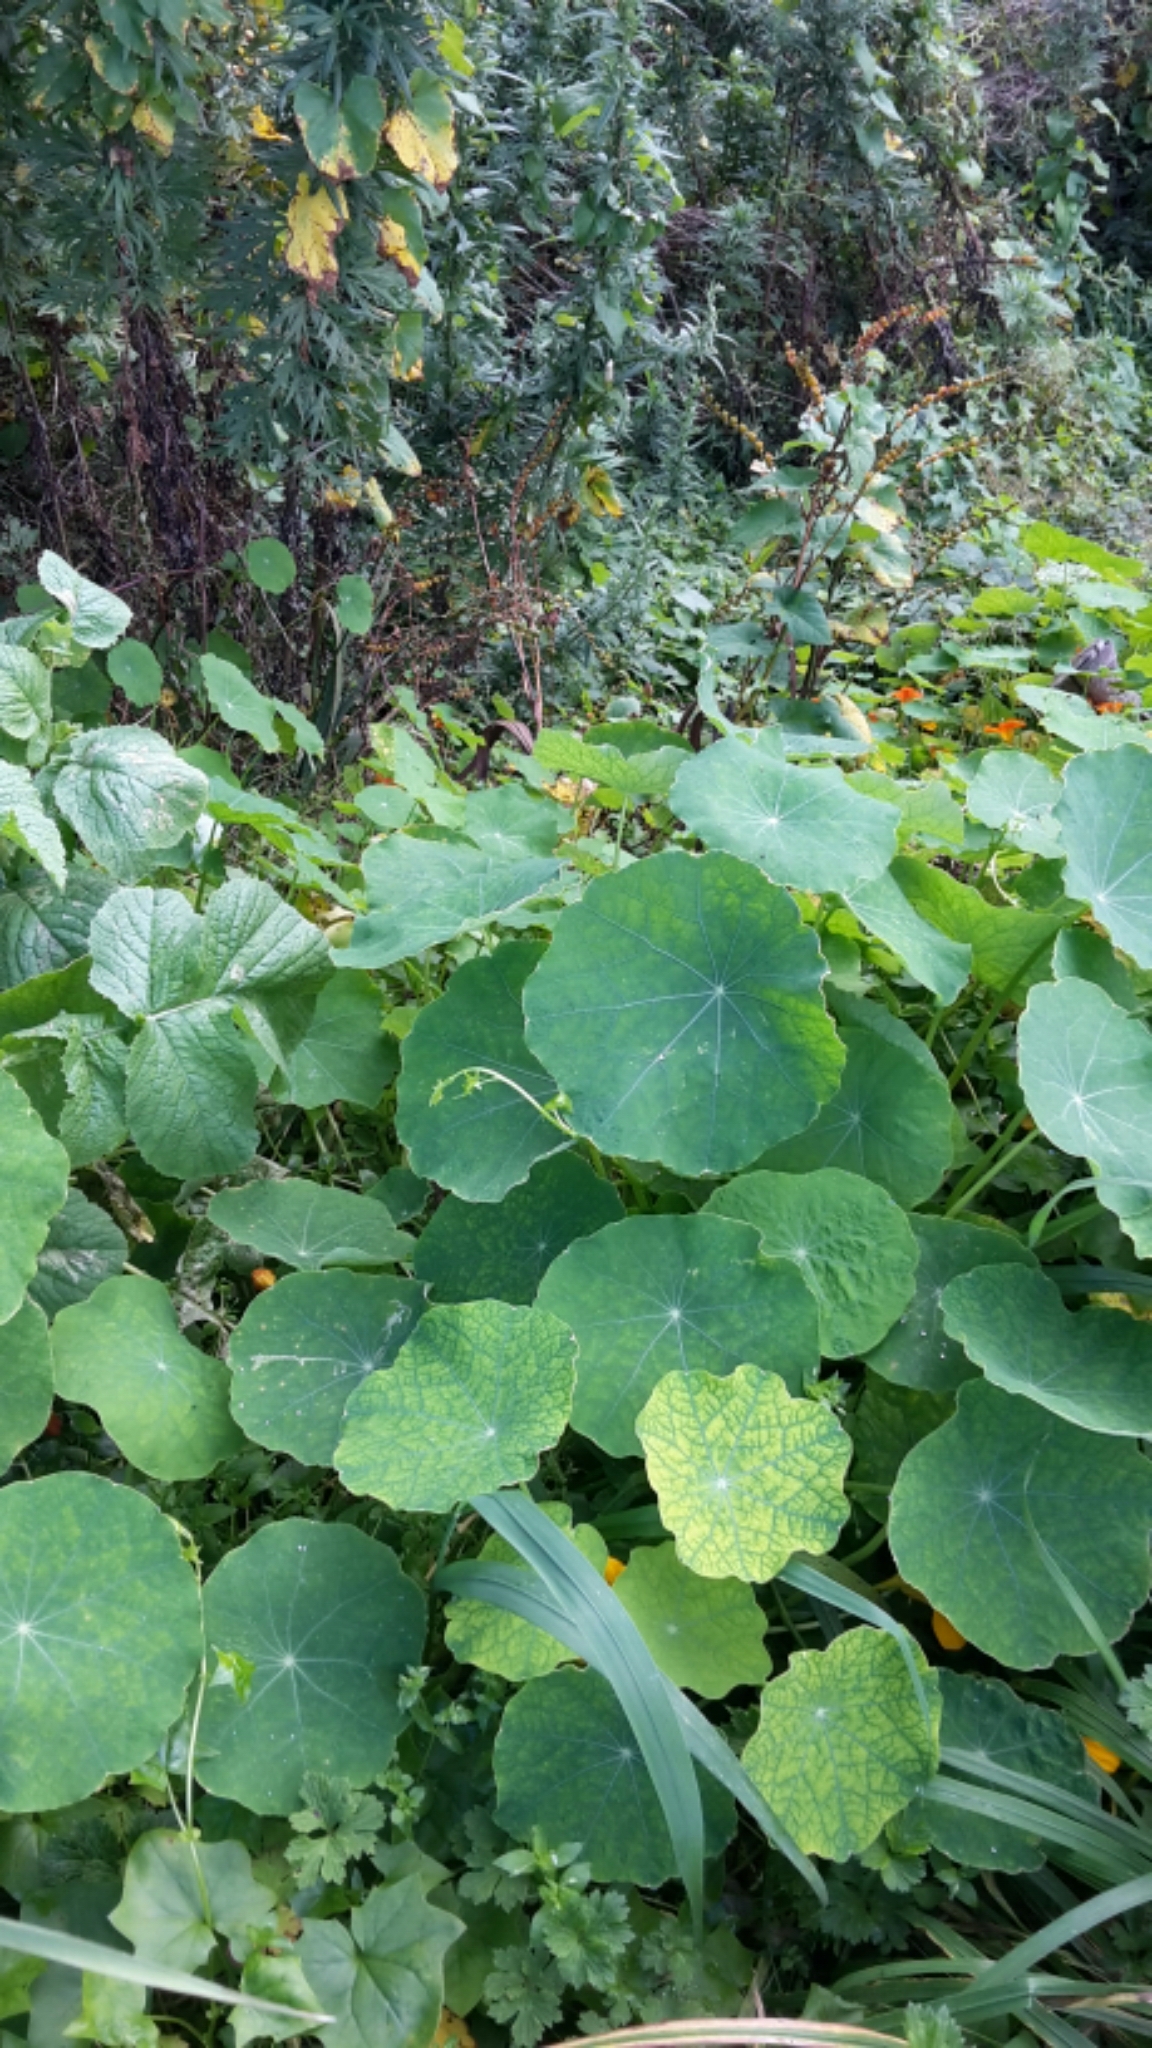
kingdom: Plantae
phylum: Tracheophyta
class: Magnoliopsida
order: Brassicales
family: Tropaeolaceae
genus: Tropaeolum
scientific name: Tropaeolum majus
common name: Nasturtium
